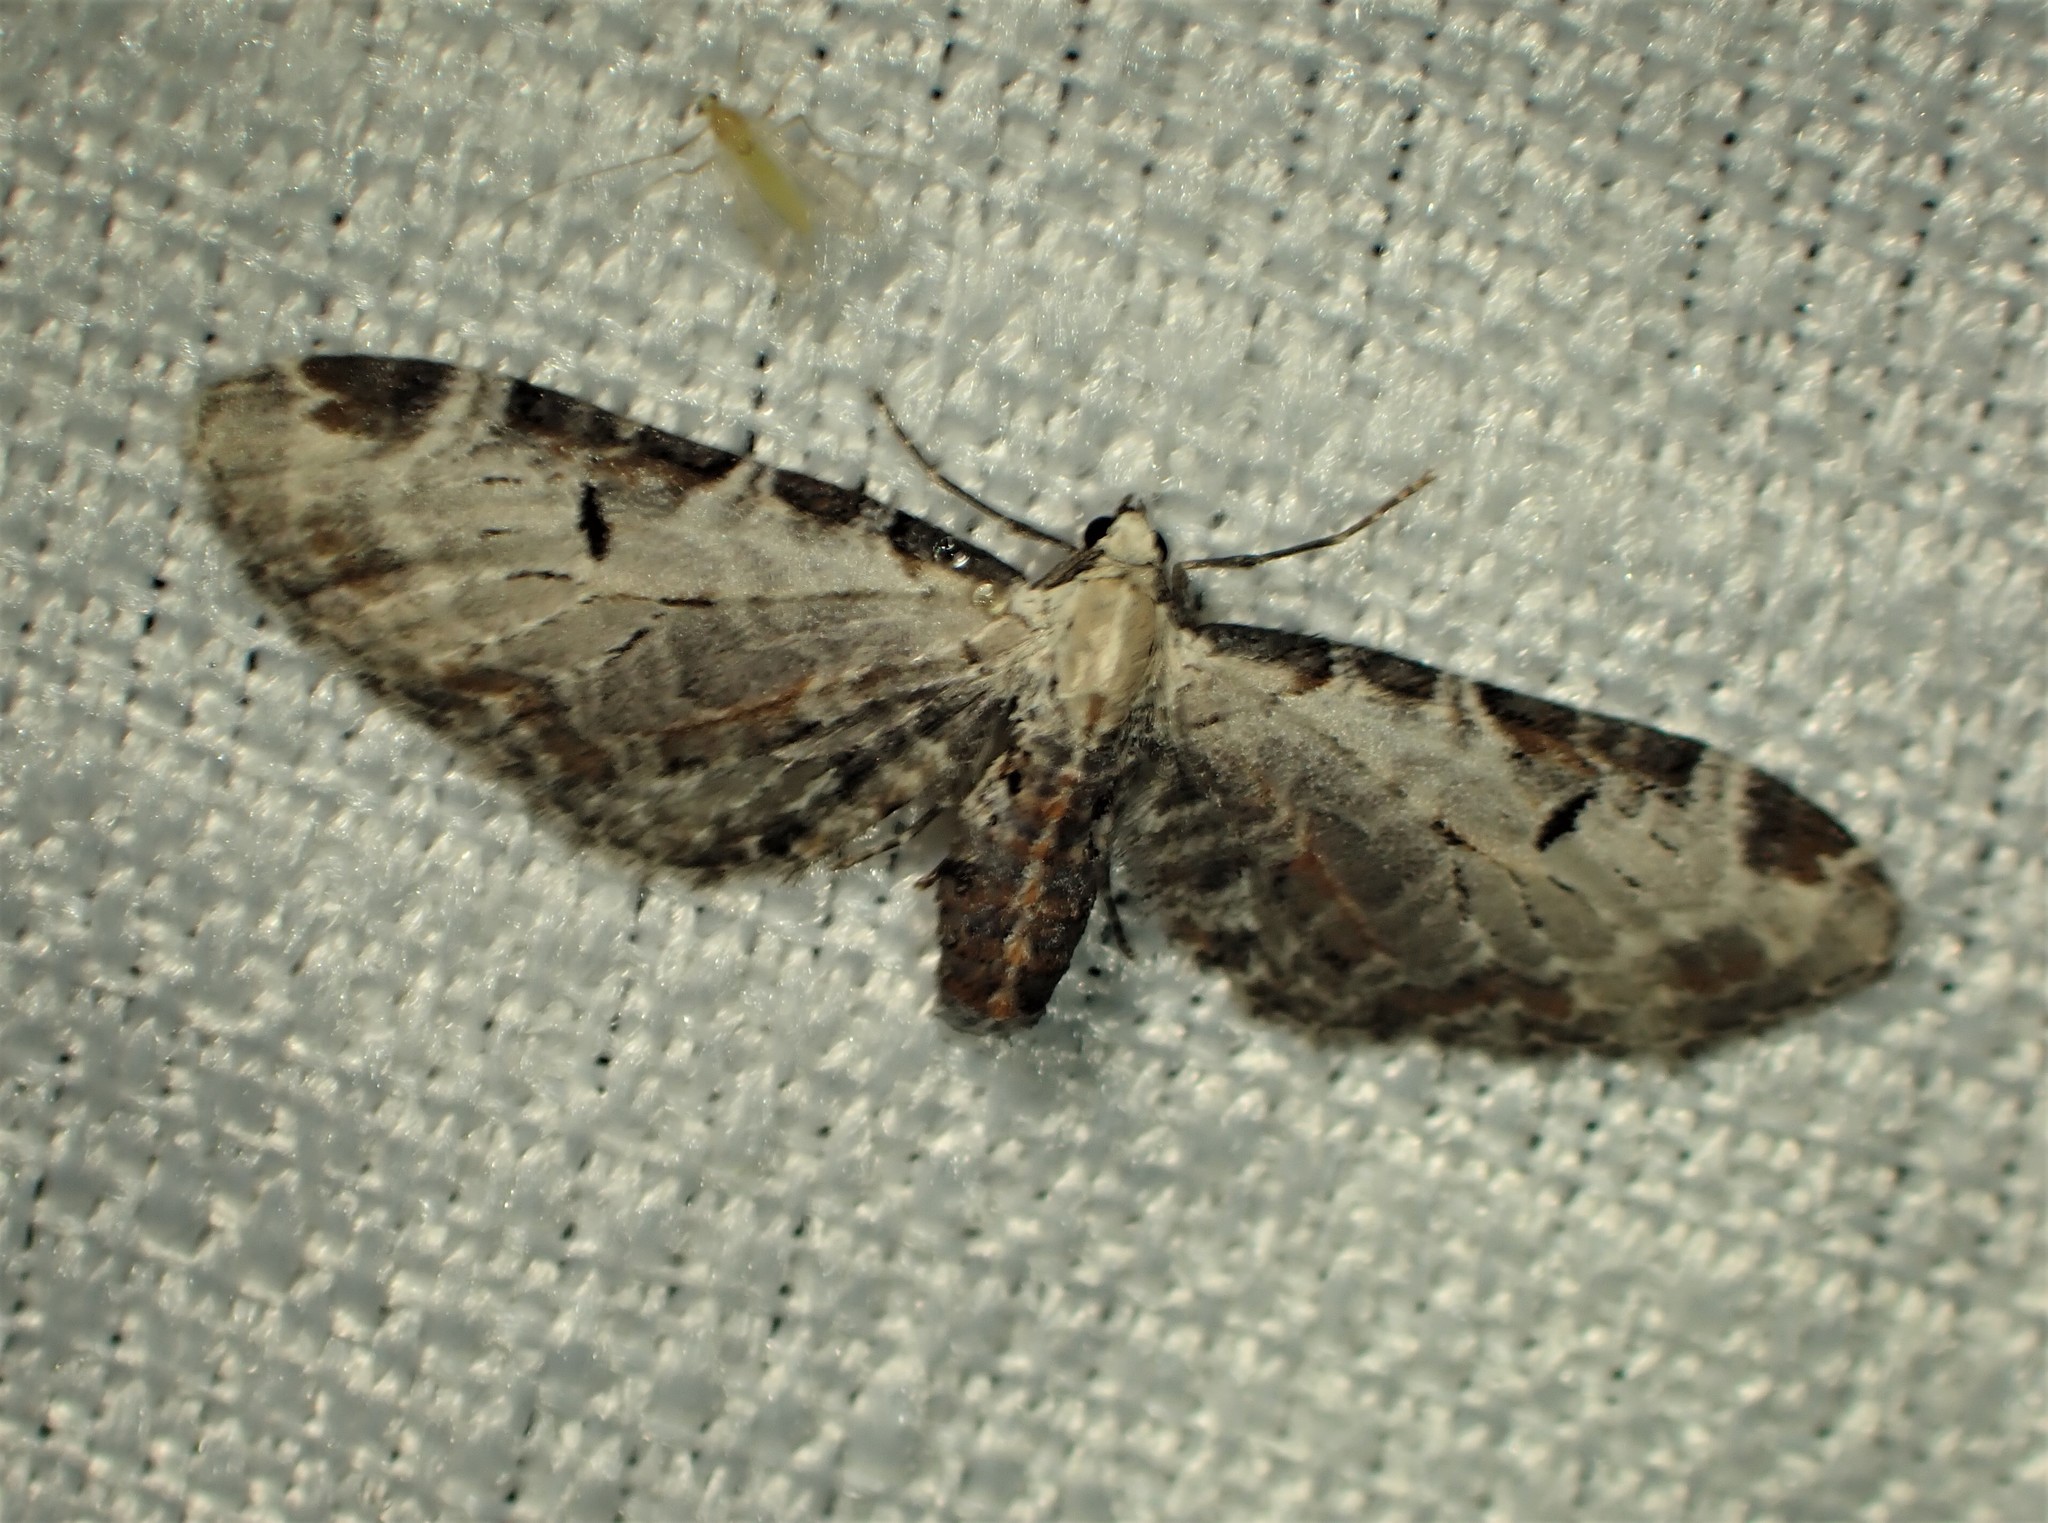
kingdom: Animalia
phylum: Arthropoda
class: Insecta
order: Lepidoptera
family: Geometridae
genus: Eupithecia
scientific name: Eupithecia ravocostaliata
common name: Great varigated pug
